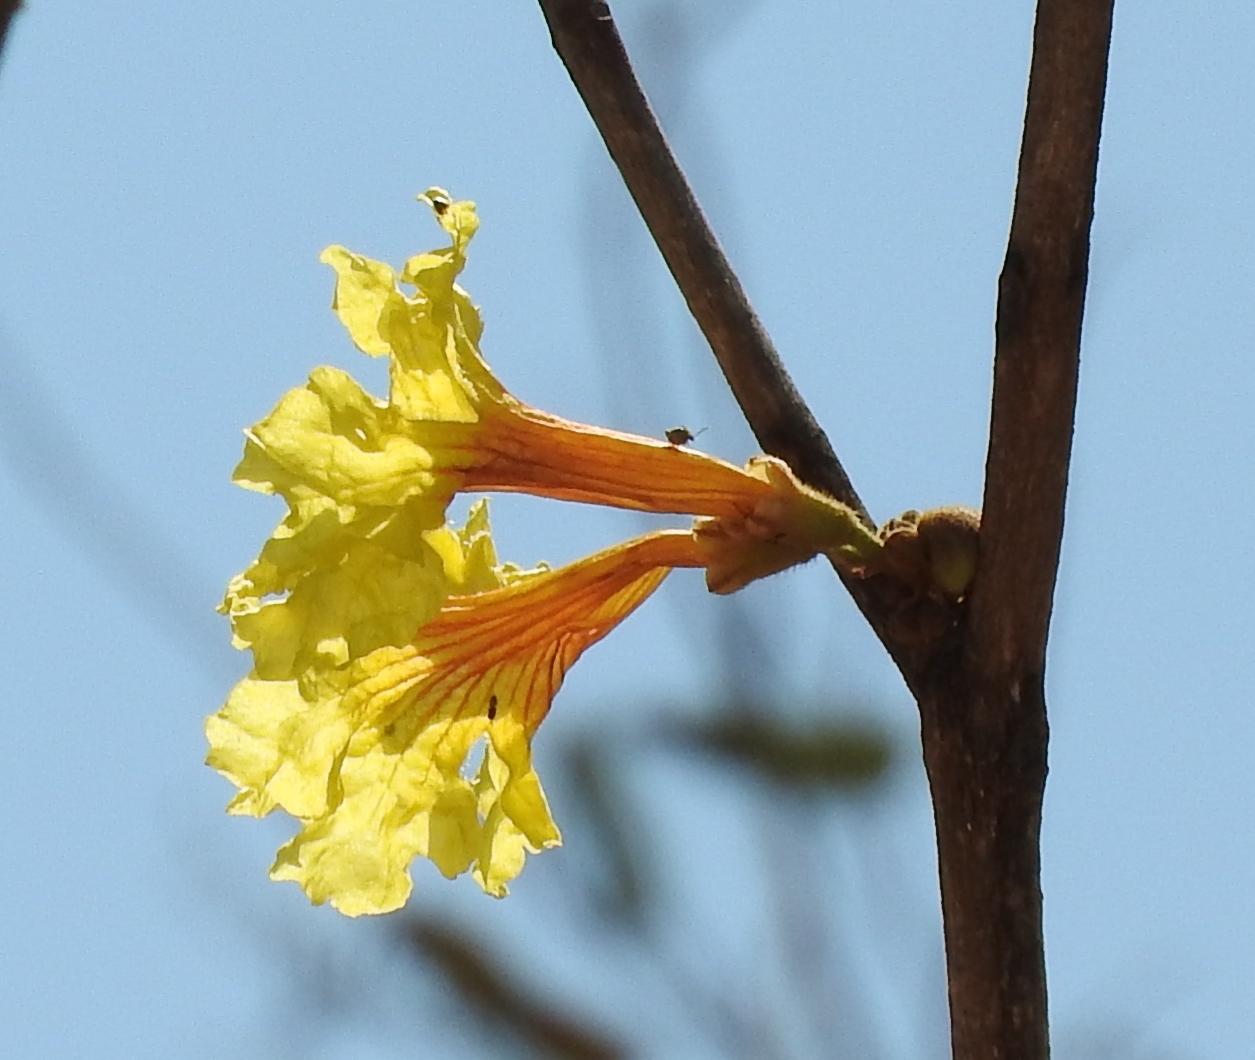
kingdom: Plantae
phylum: Tracheophyta
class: Magnoliopsida
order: Lamiales
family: Bignoniaceae
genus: Handroanthus
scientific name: Handroanthus chrysanthus
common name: Trumpet trees
